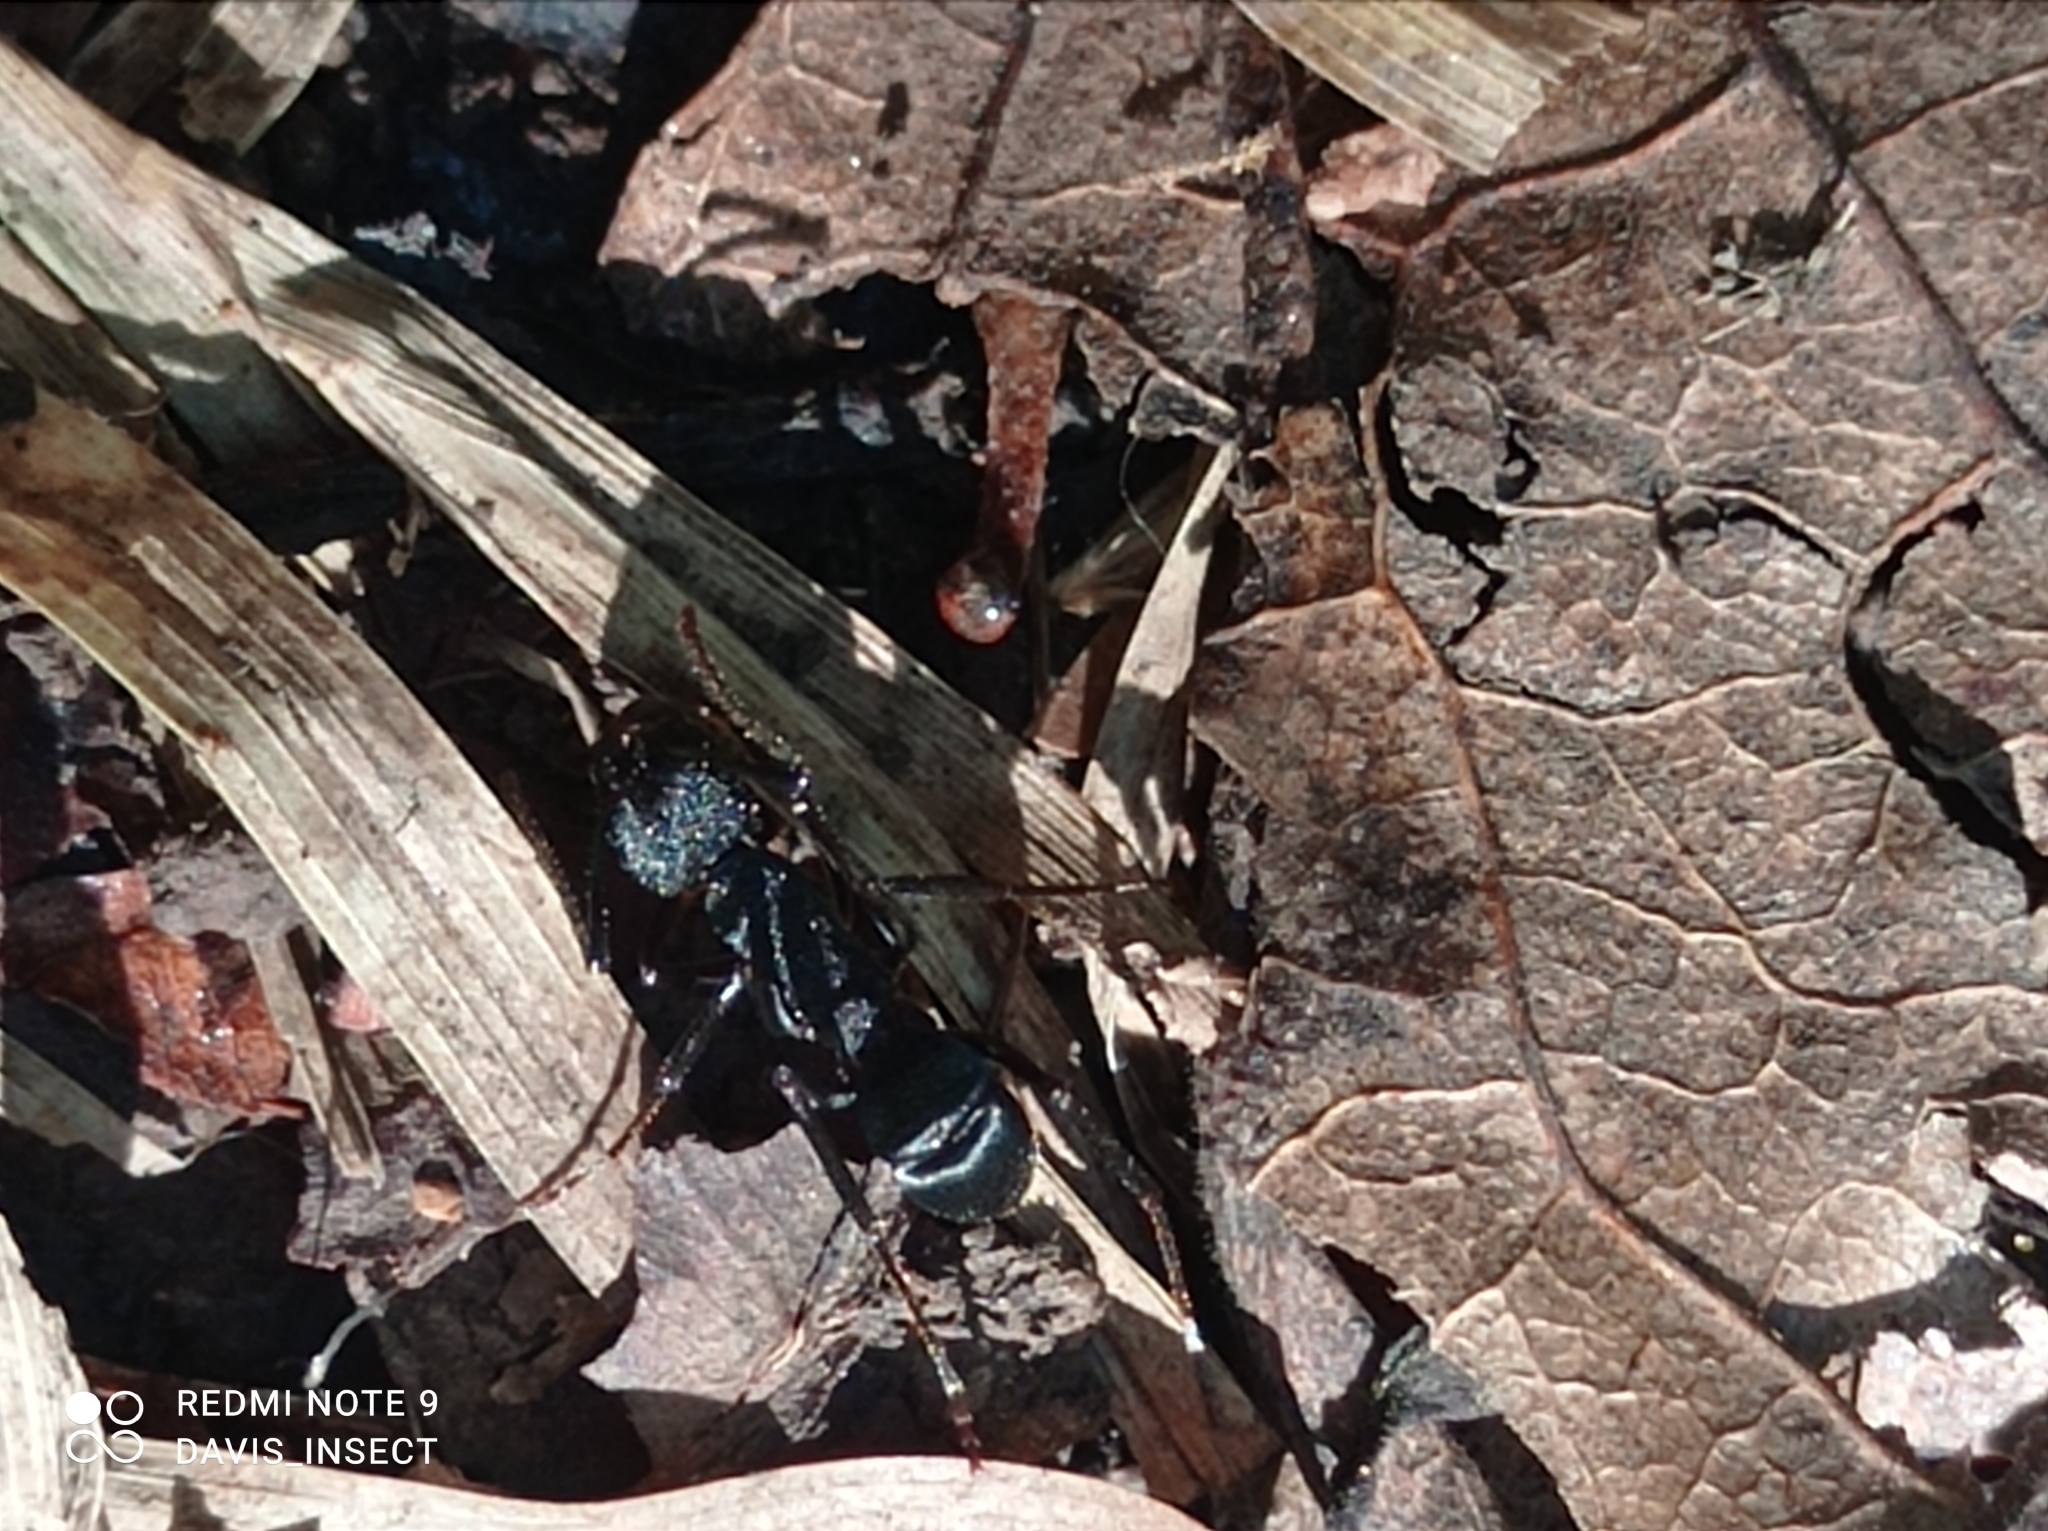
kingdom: Animalia
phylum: Arthropoda
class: Insecta
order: Hymenoptera
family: Formicidae
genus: Rhytidoponera
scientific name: Rhytidoponera hanieli
